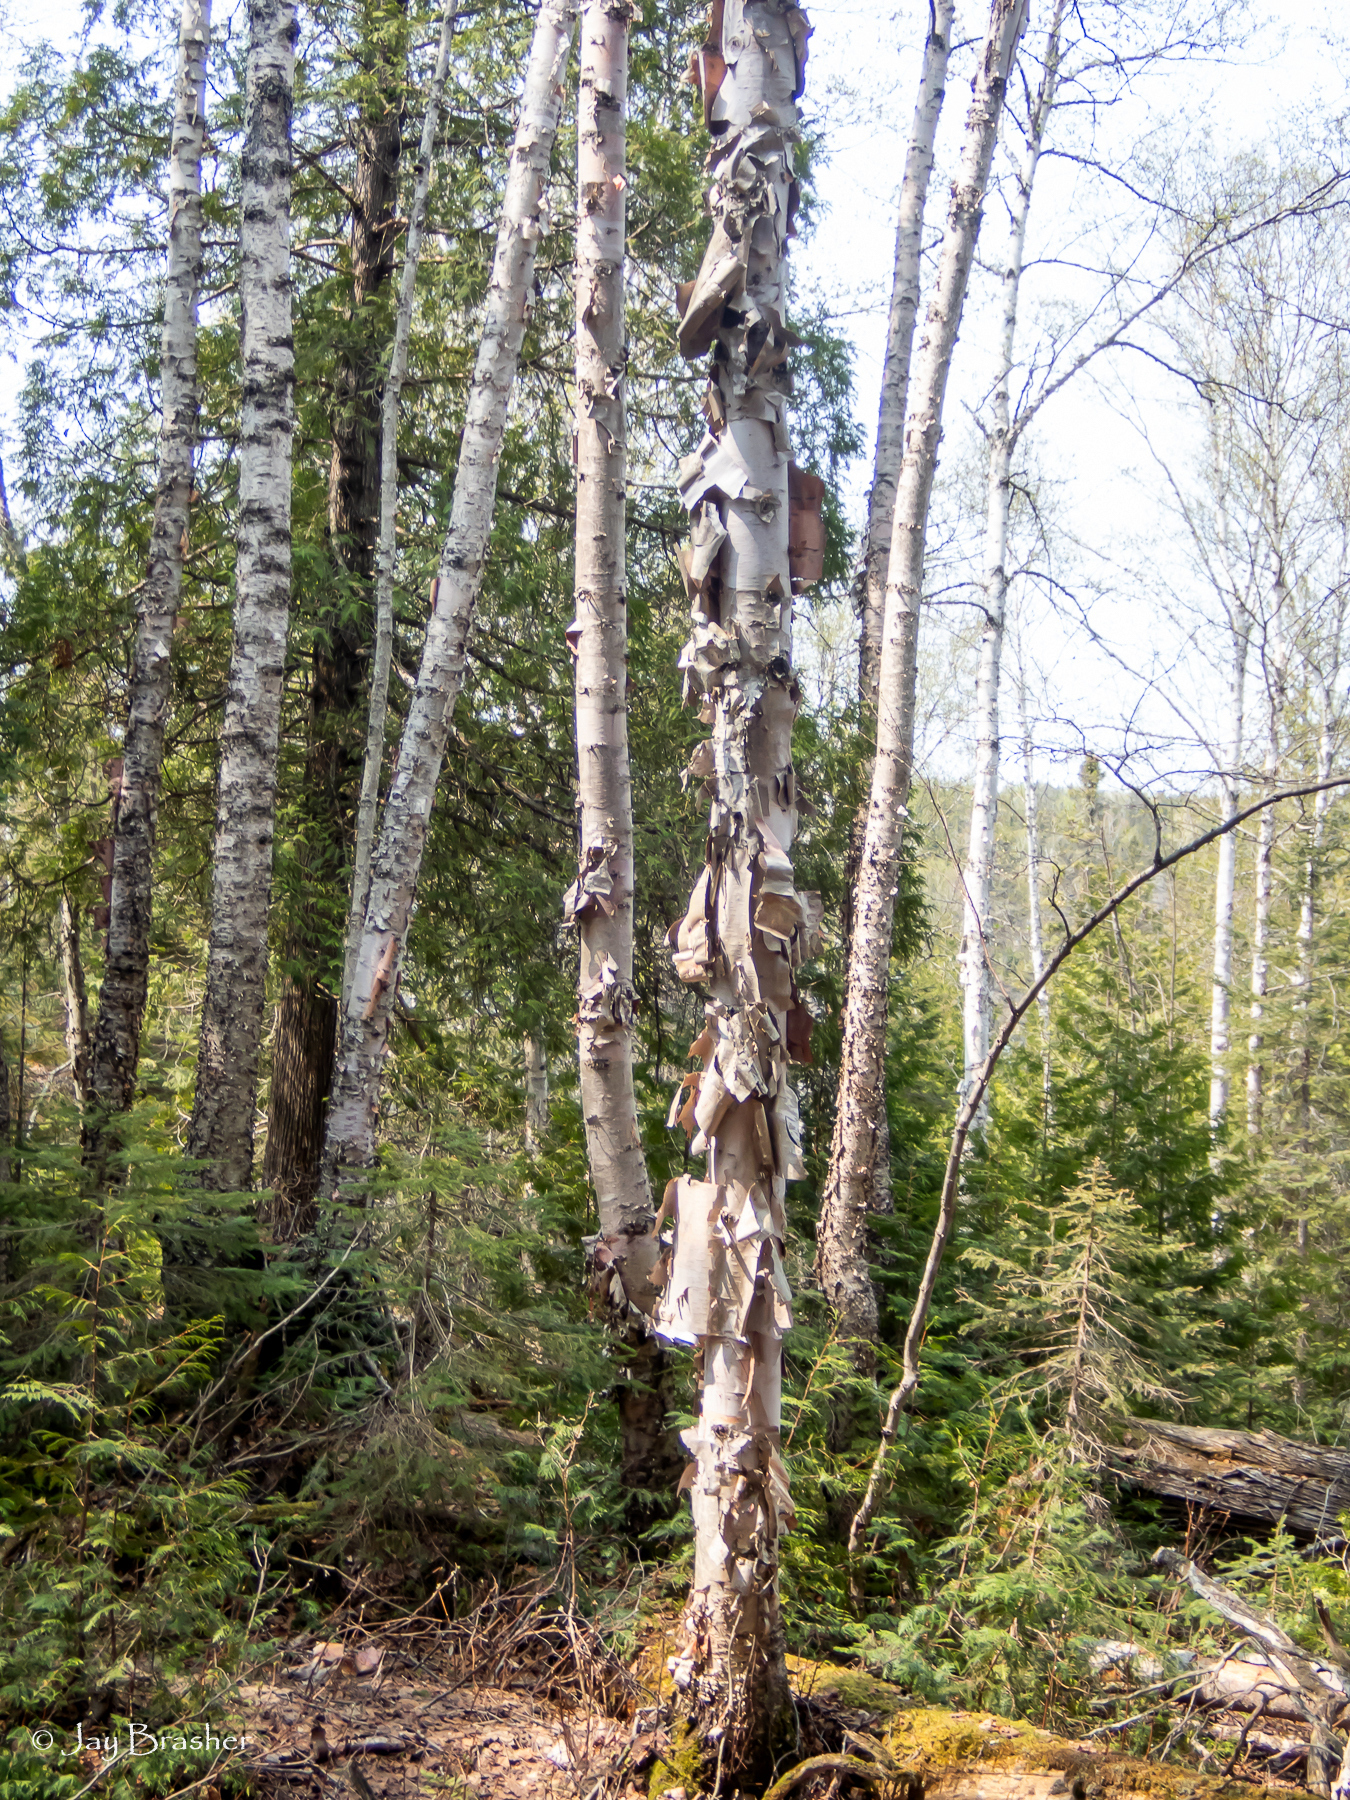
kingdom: Plantae
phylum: Tracheophyta
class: Magnoliopsida
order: Fagales
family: Betulaceae
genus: Betula
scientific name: Betula papyrifera
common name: Paper birch
